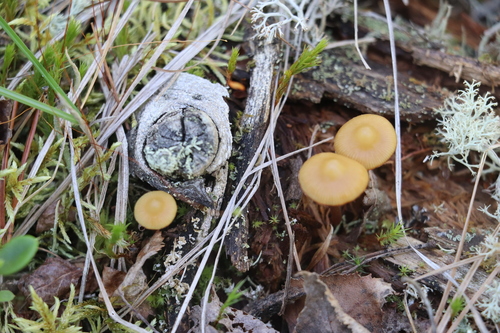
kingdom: Fungi
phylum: Basidiomycota
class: Agaricomycetes
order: Agaricales
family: Strophariaceae
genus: Pholiota
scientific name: Pholiota lignicola
